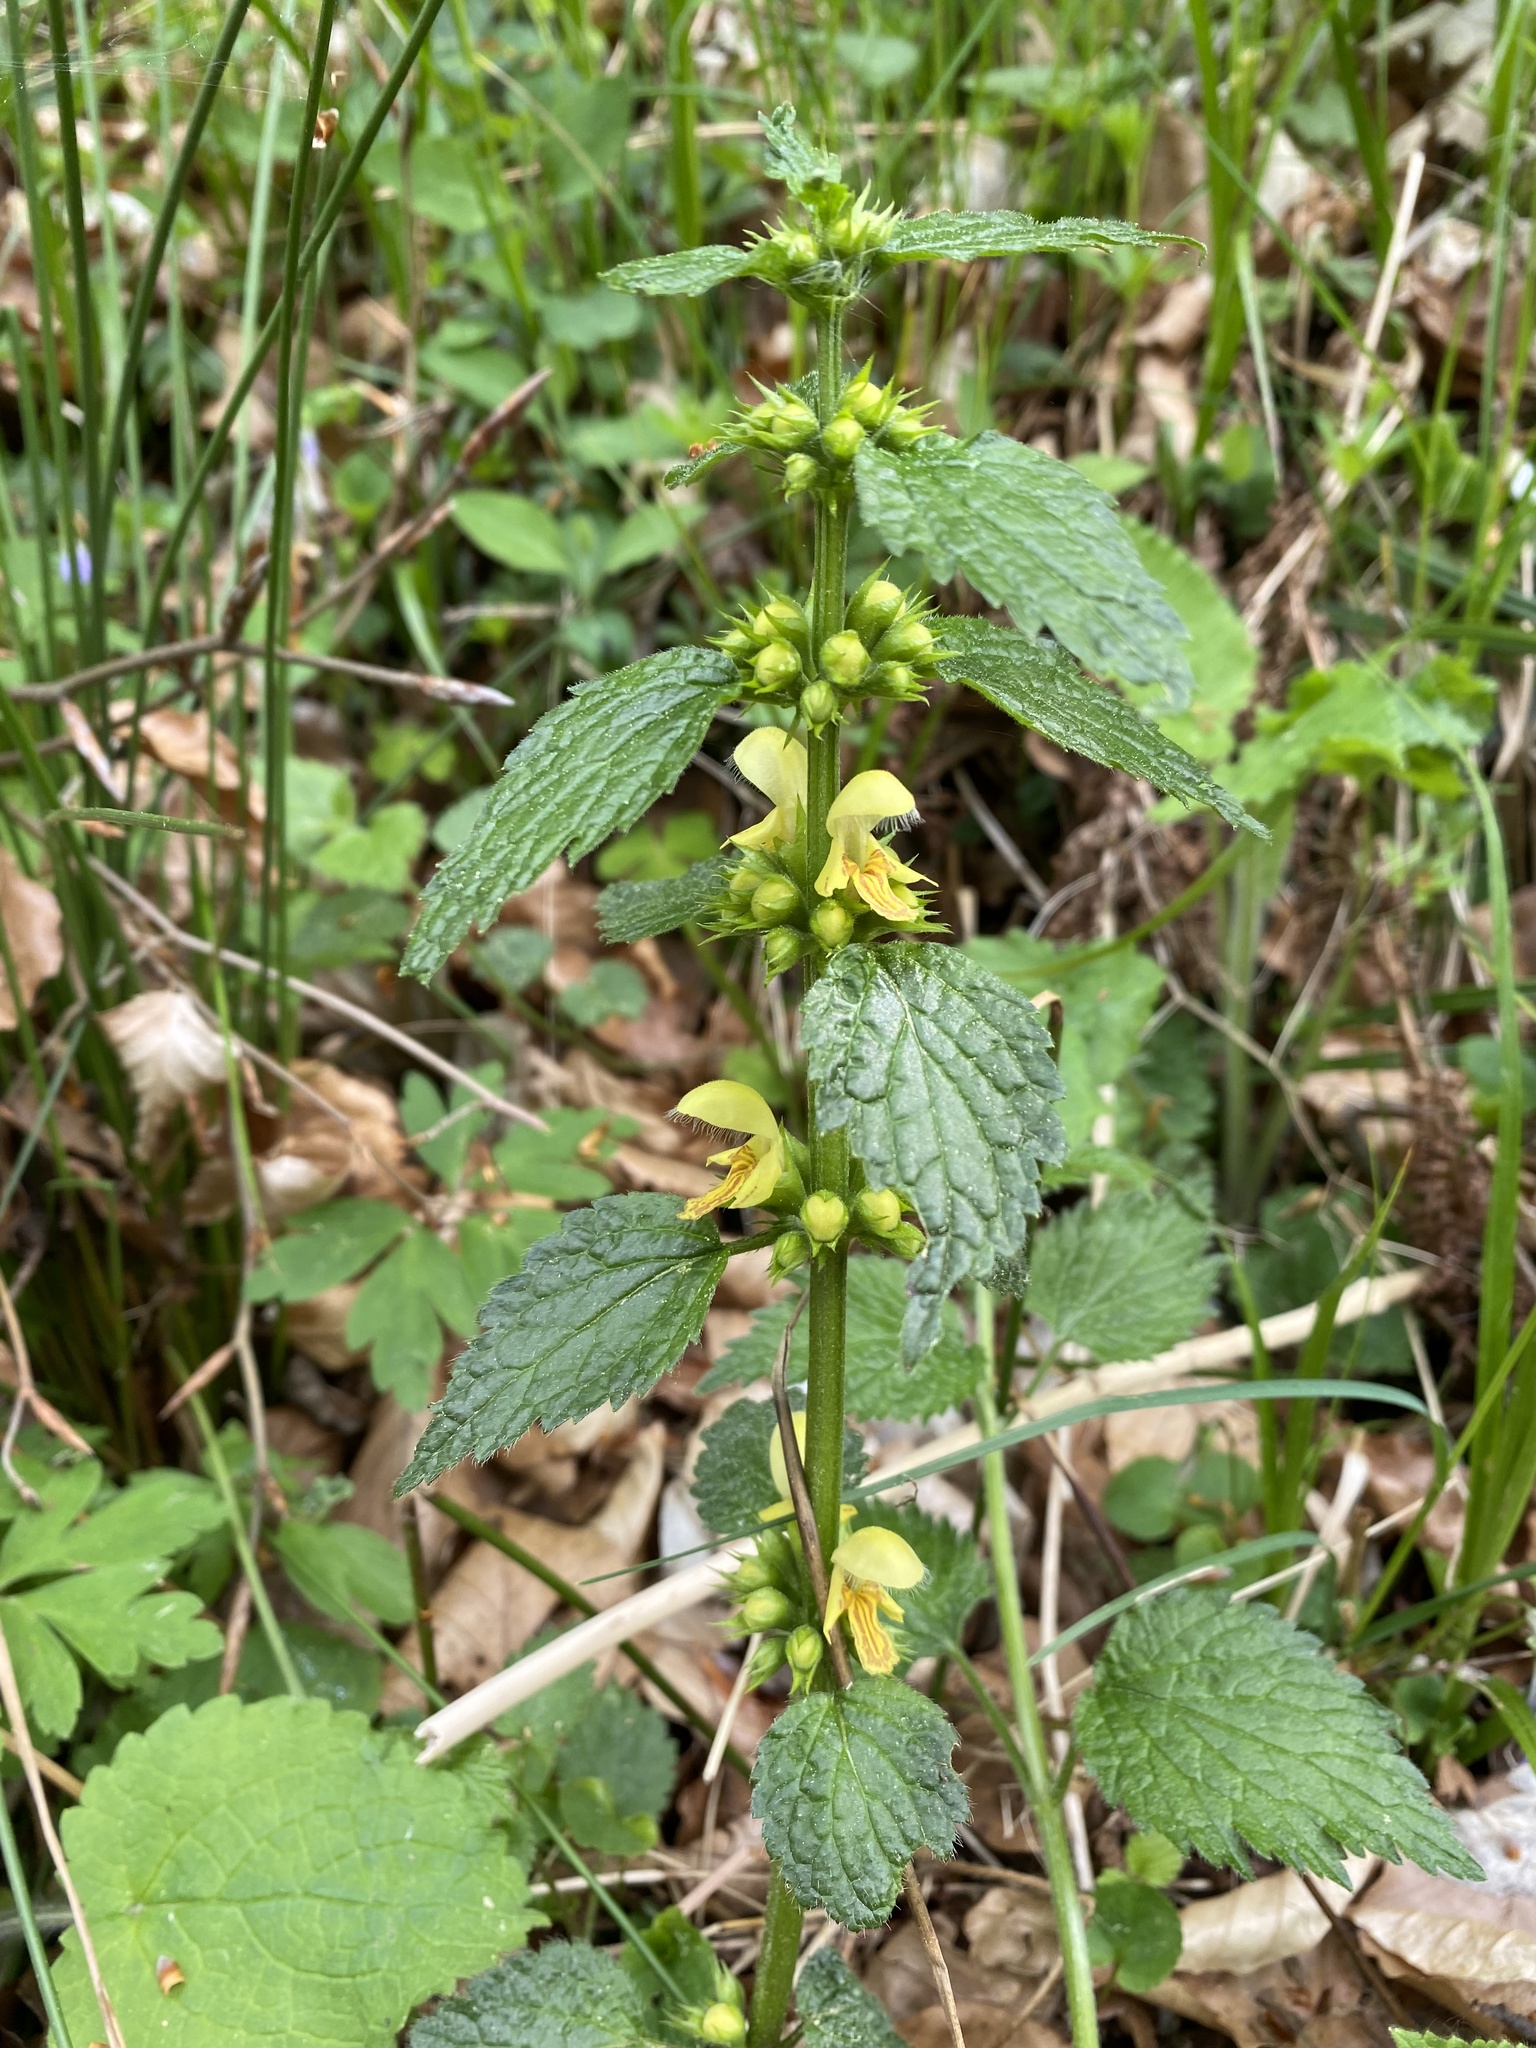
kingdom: Plantae
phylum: Tracheophyta
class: Magnoliopsida
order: Lamiales
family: Lamiaceae
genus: Lamium
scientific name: Lamium galeobdolon
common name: Yellow archangel
